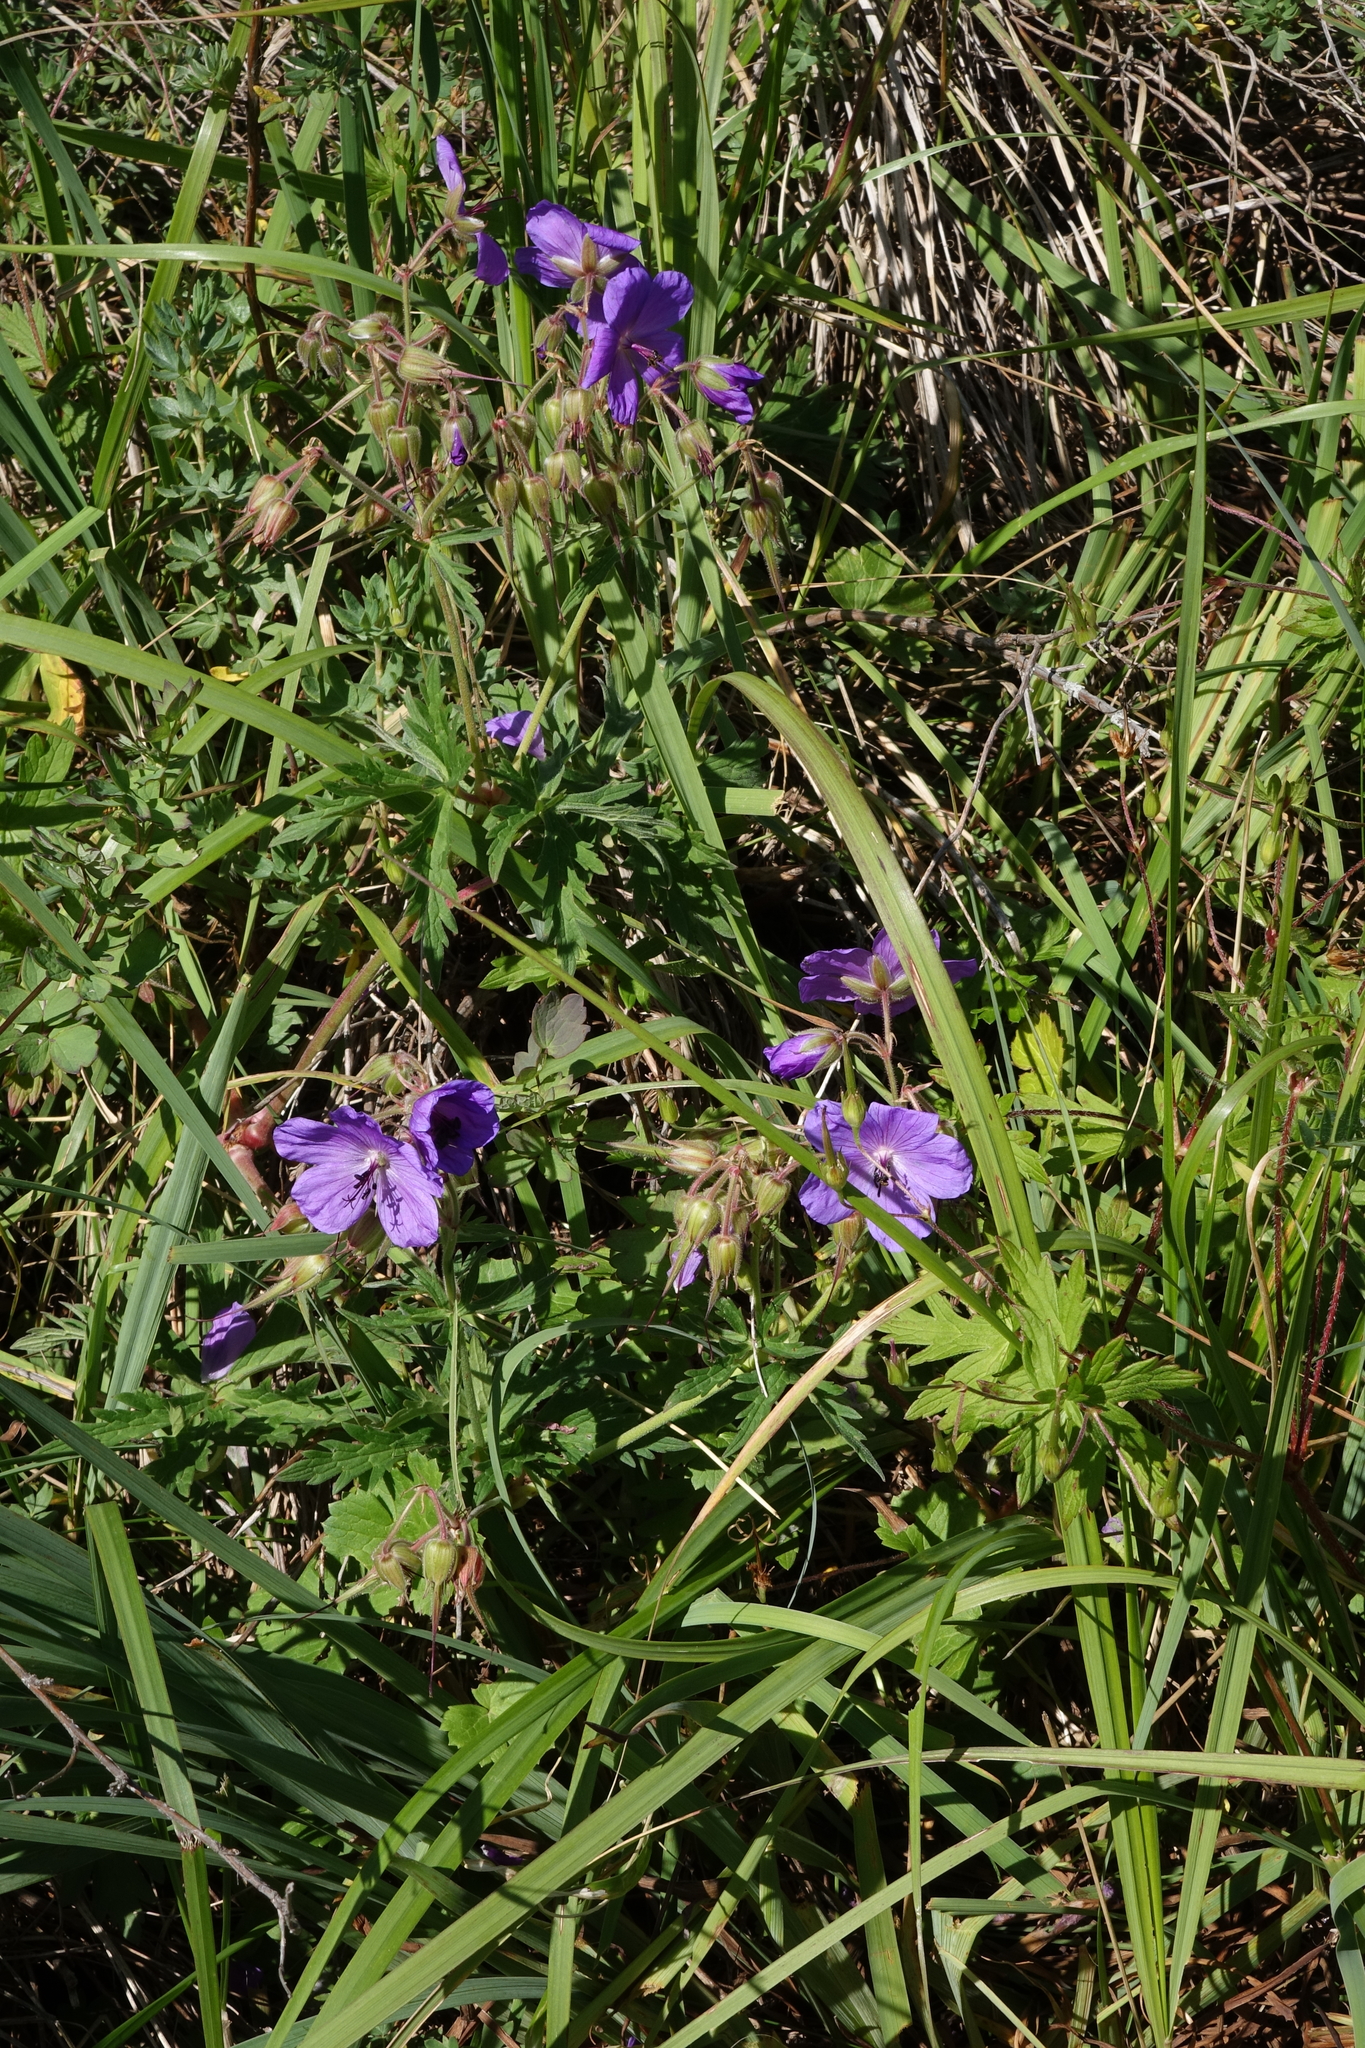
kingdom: Plantae
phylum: Tracheophyta
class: Magnoliopsida
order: Geraniales
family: Geraniaceae
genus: Geranium
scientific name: Geranium ruprechtii
